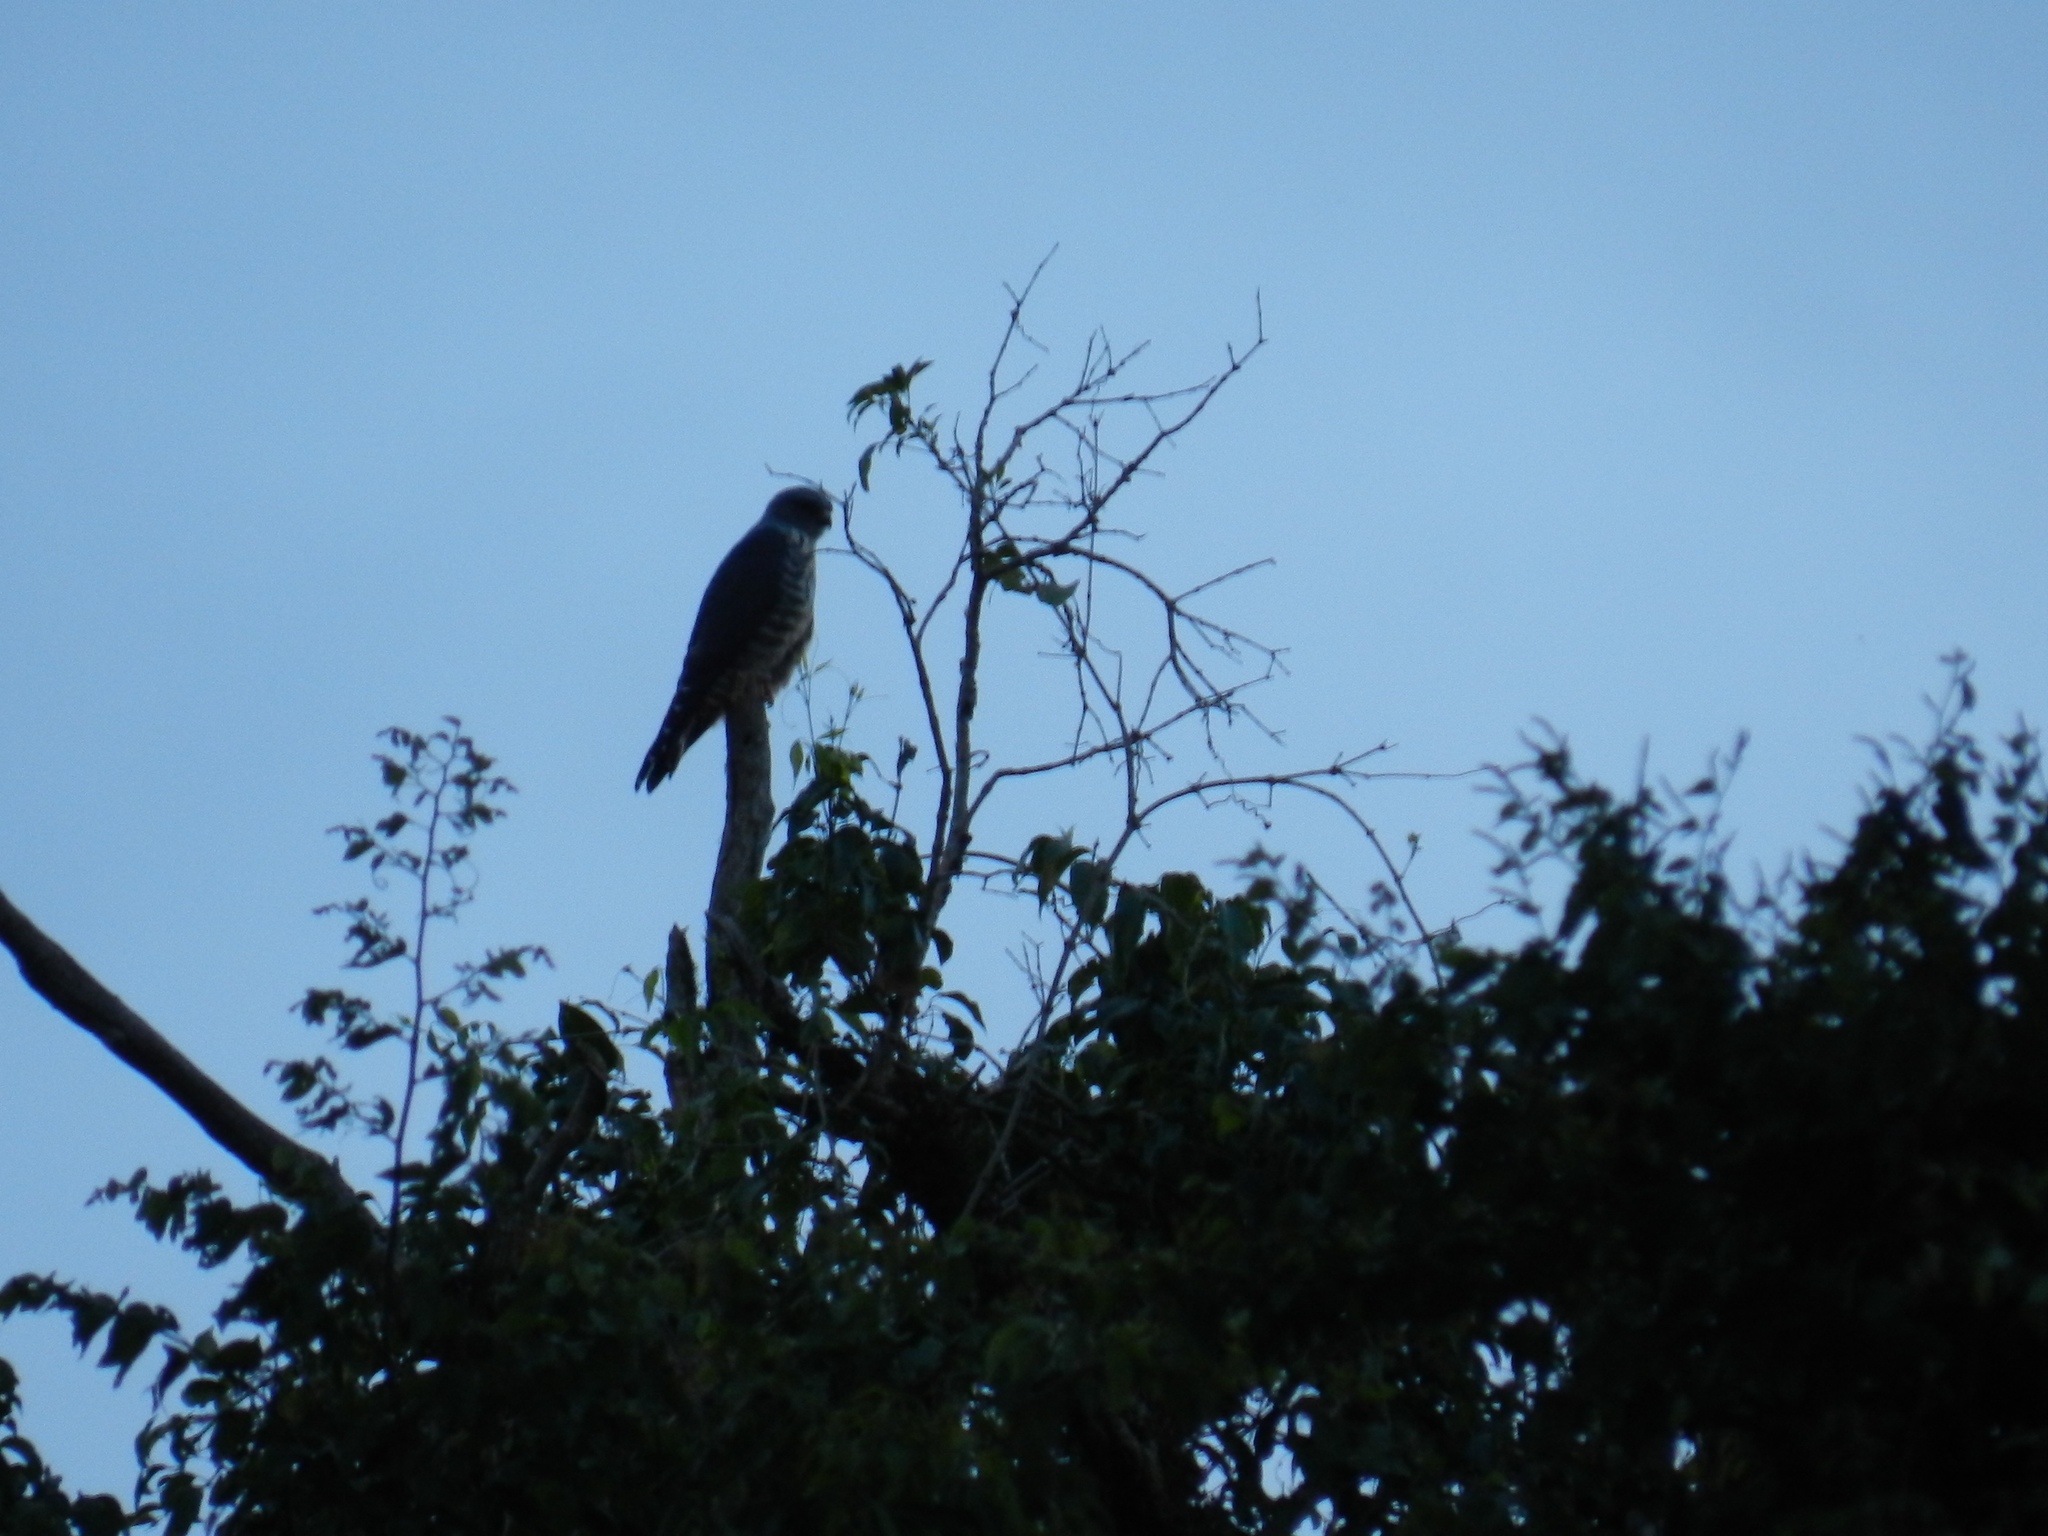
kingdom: Animalia
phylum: Chordata
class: Aves
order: Accipitriformes
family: Accipitridae
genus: Rupornis
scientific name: Rupornis magnirostris
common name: Roadside hawk
